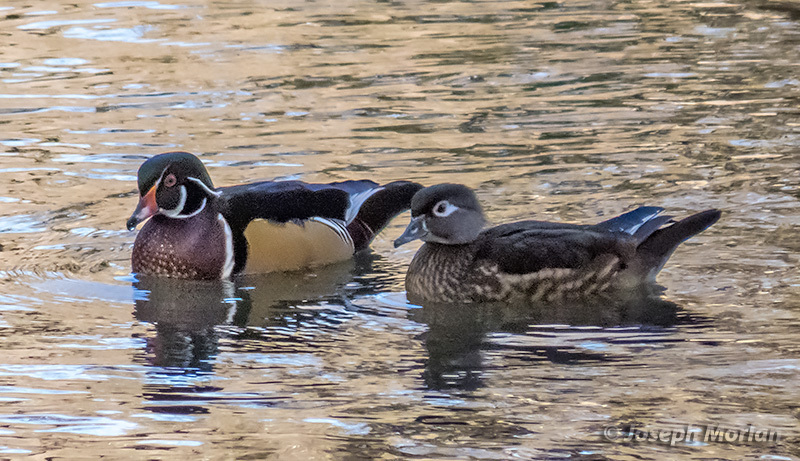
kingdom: Animalia
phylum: Chordata
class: Aves
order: Anseriformes
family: Anatidae
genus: Aix
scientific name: Aix sponsa
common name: Wood duck
